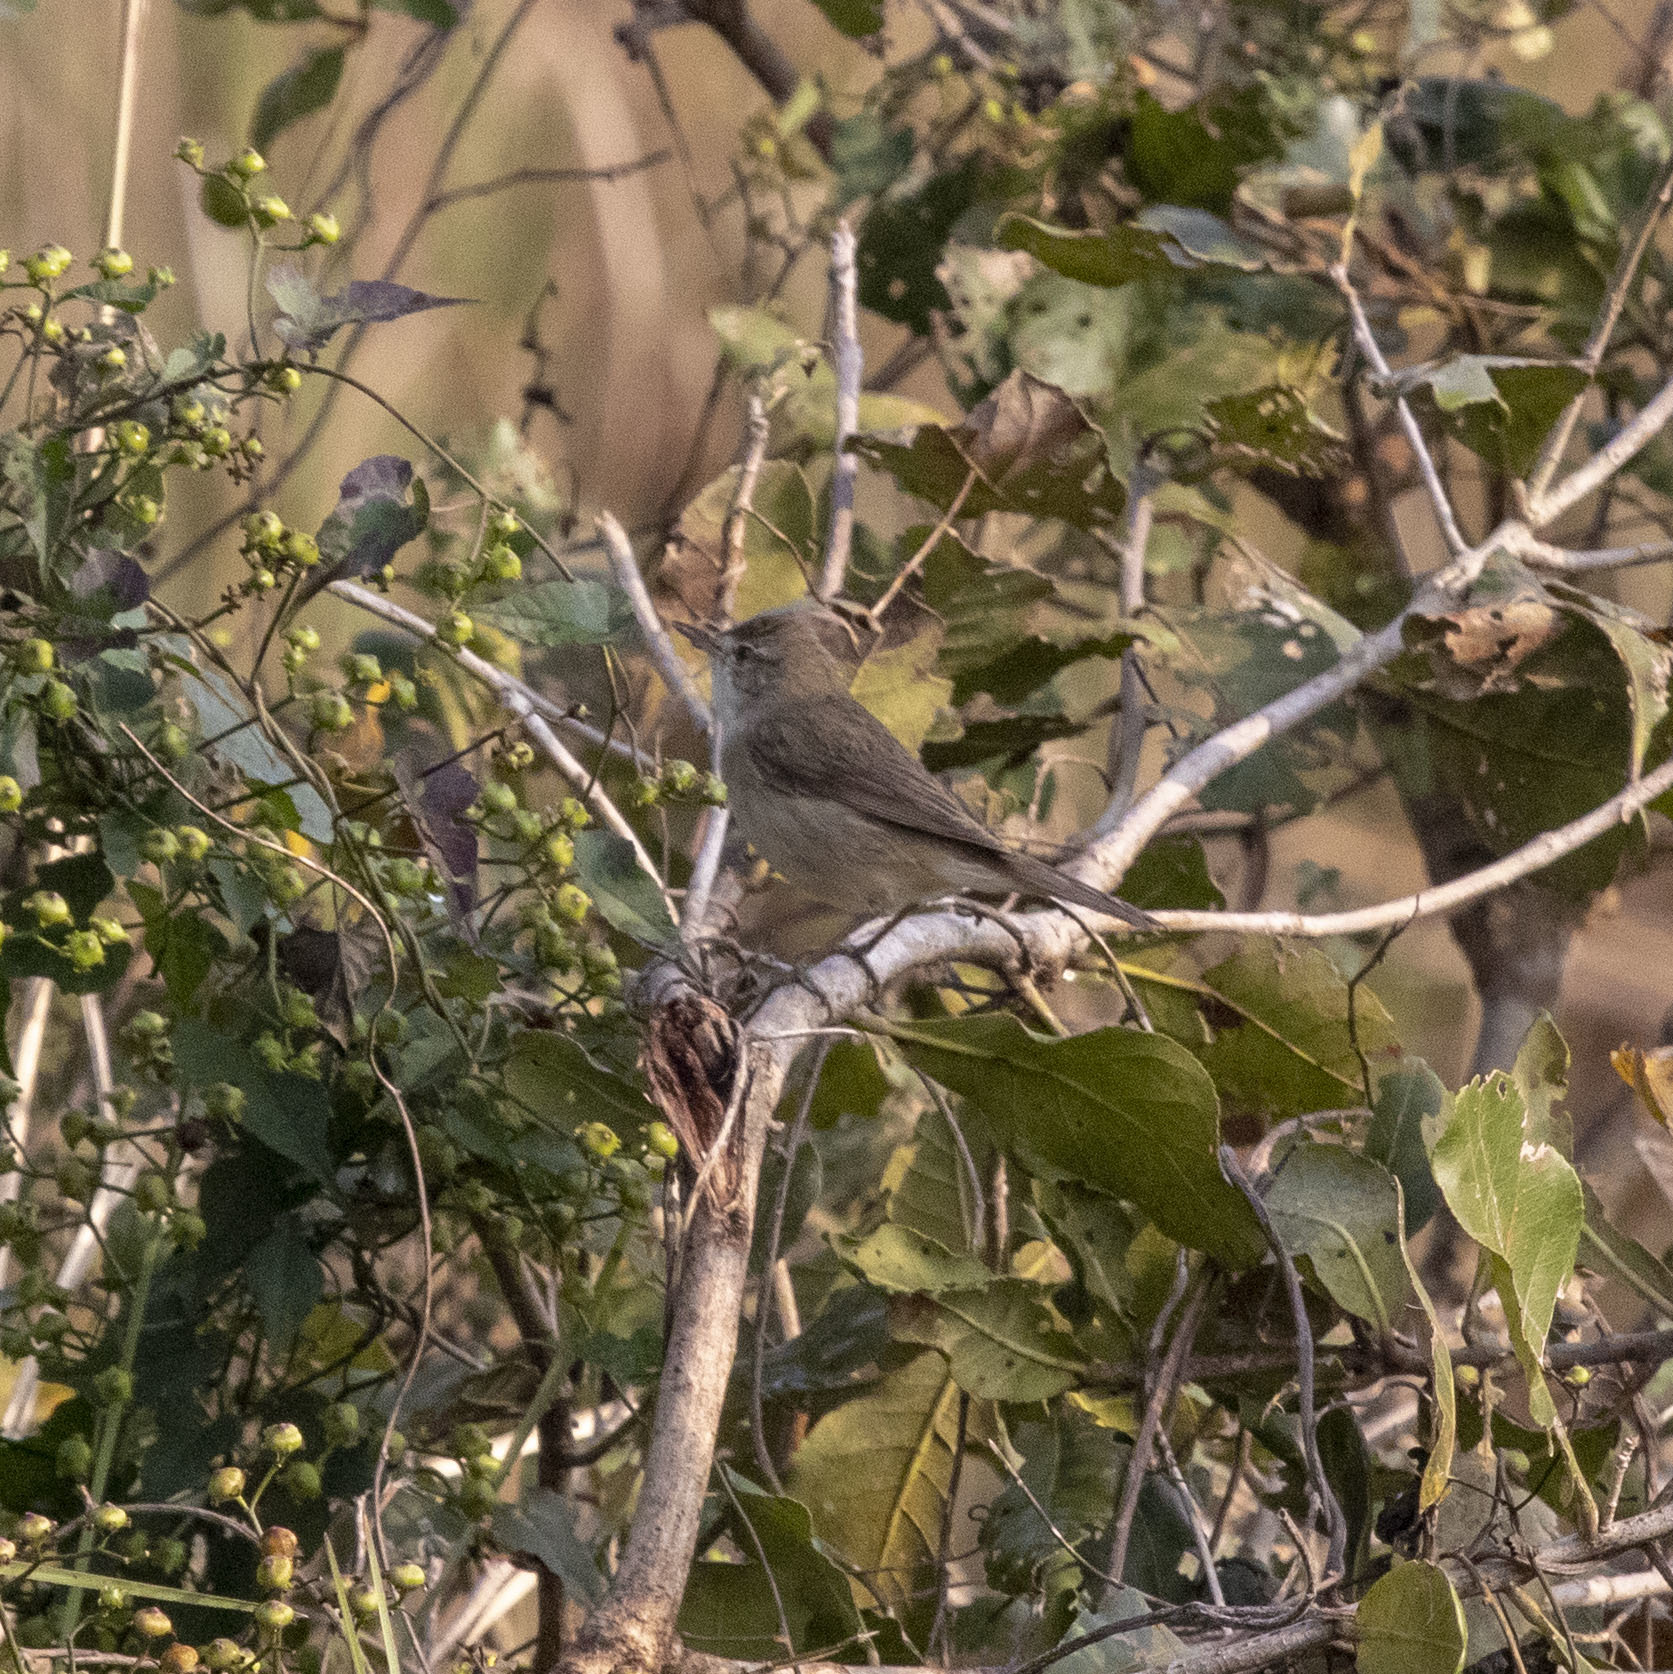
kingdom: Animalia
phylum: Chordata
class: Aves
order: Passeriformes
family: Acrocephalidae
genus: Acrocephalus
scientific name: Acrocephalus dumetorum
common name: Blyth's reed warbler
